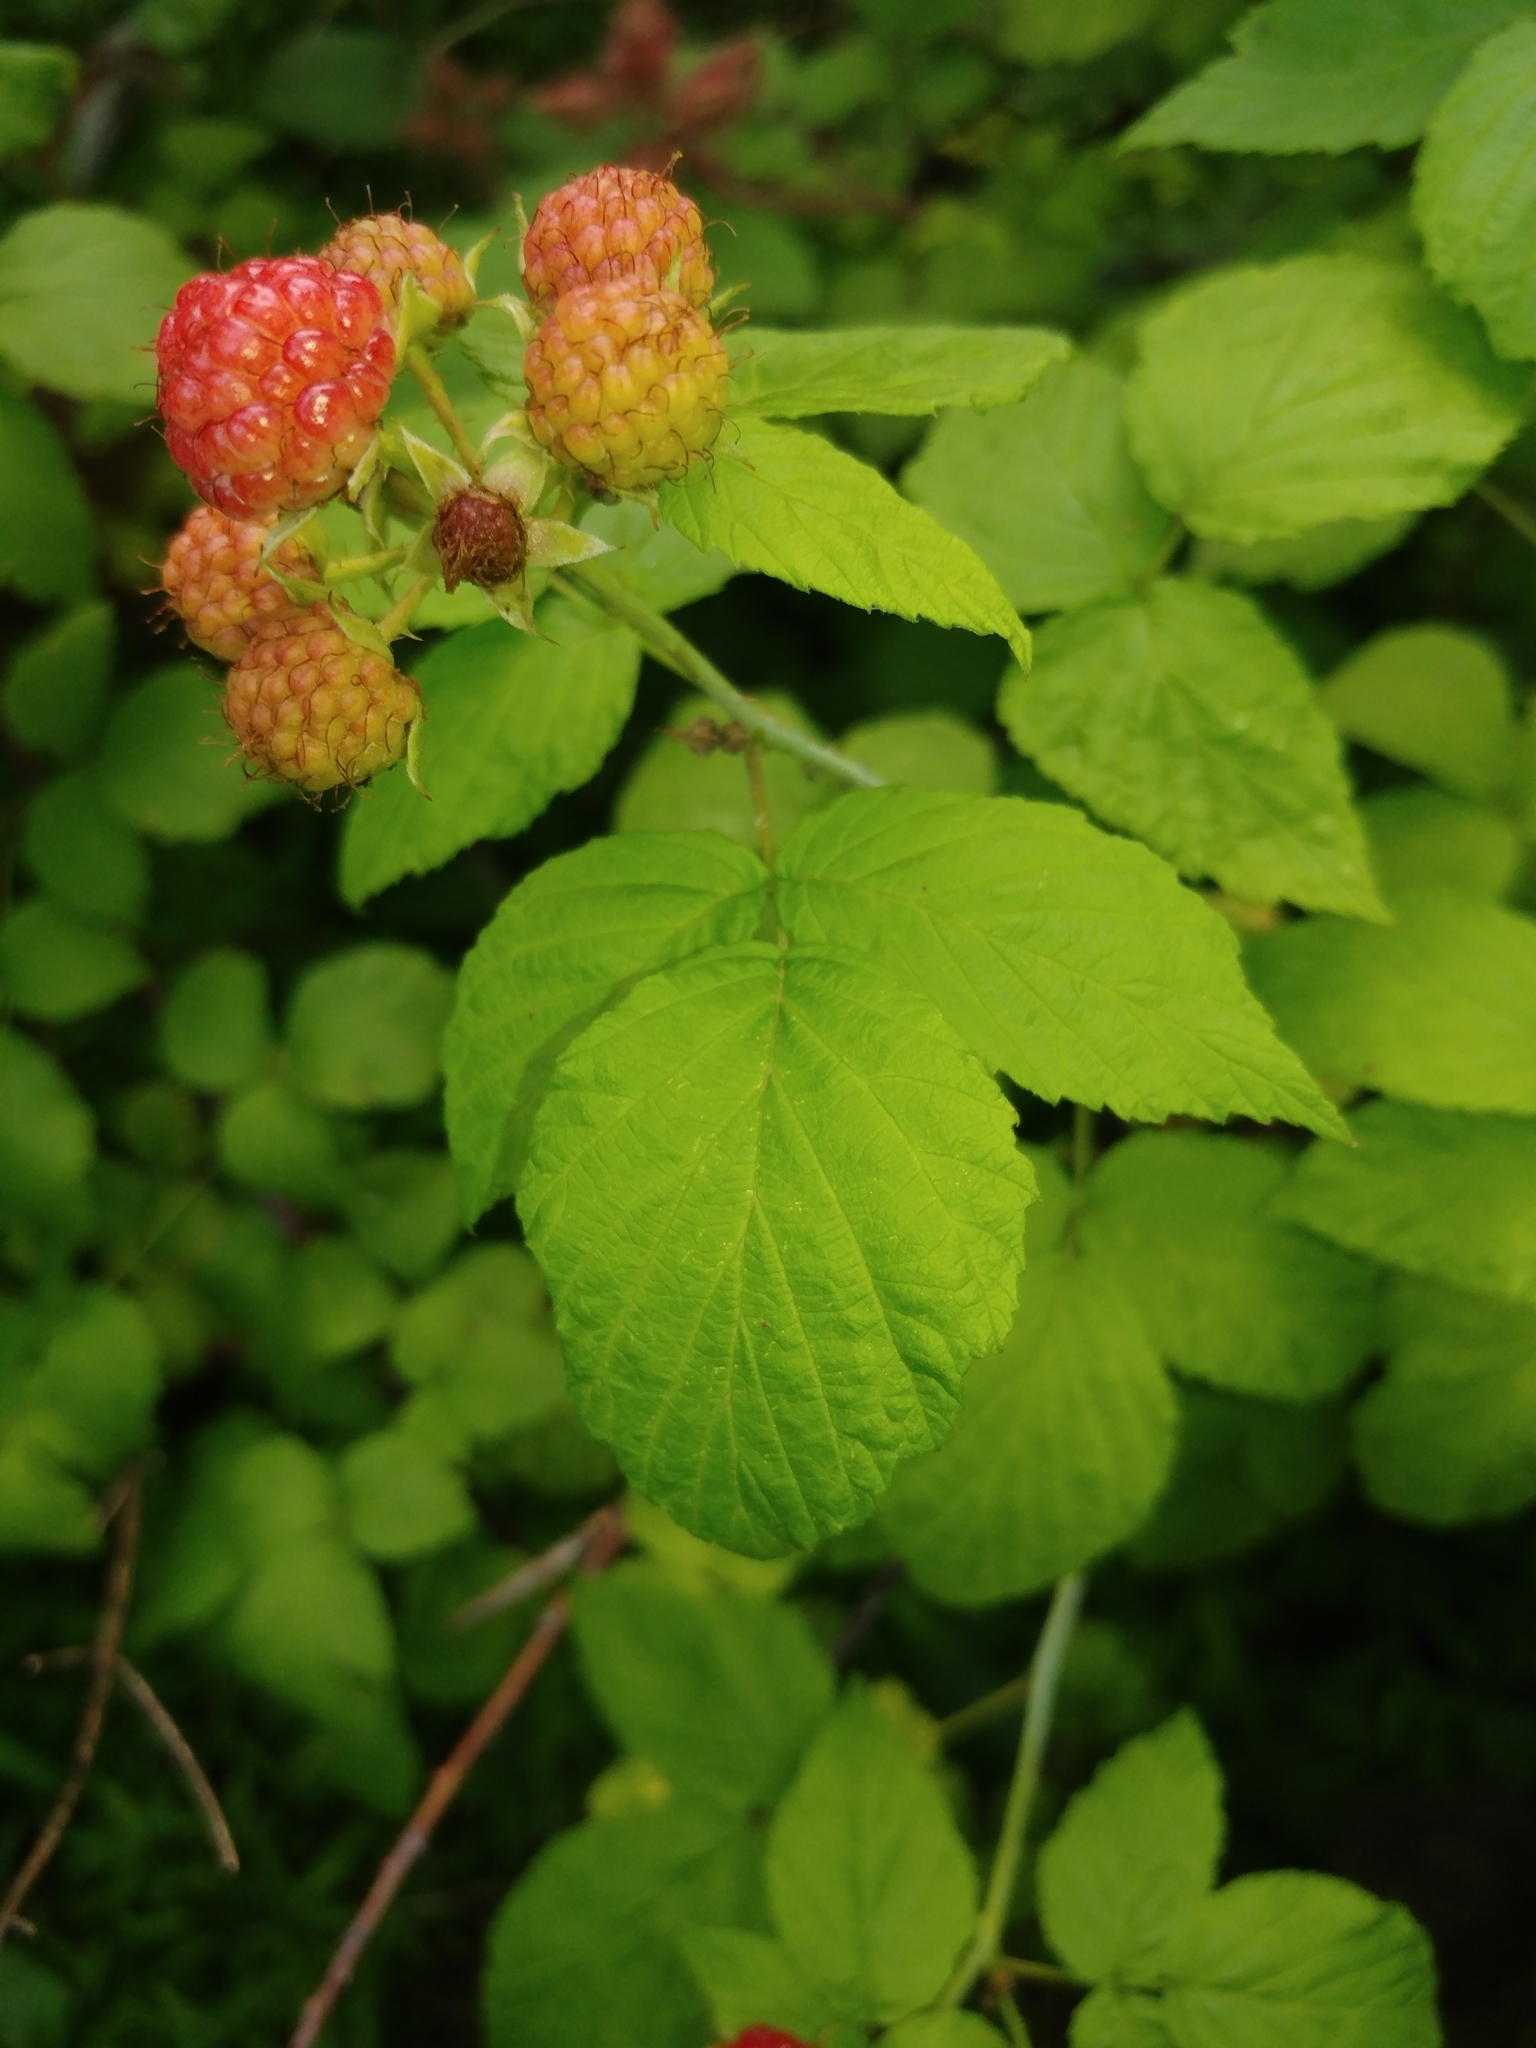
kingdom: Plantae
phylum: Tracheophyta
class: Magnoliopsida
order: Rosales
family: Rosaceae
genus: Rubus
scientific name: Rubus occidentalis
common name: Black raspberry
